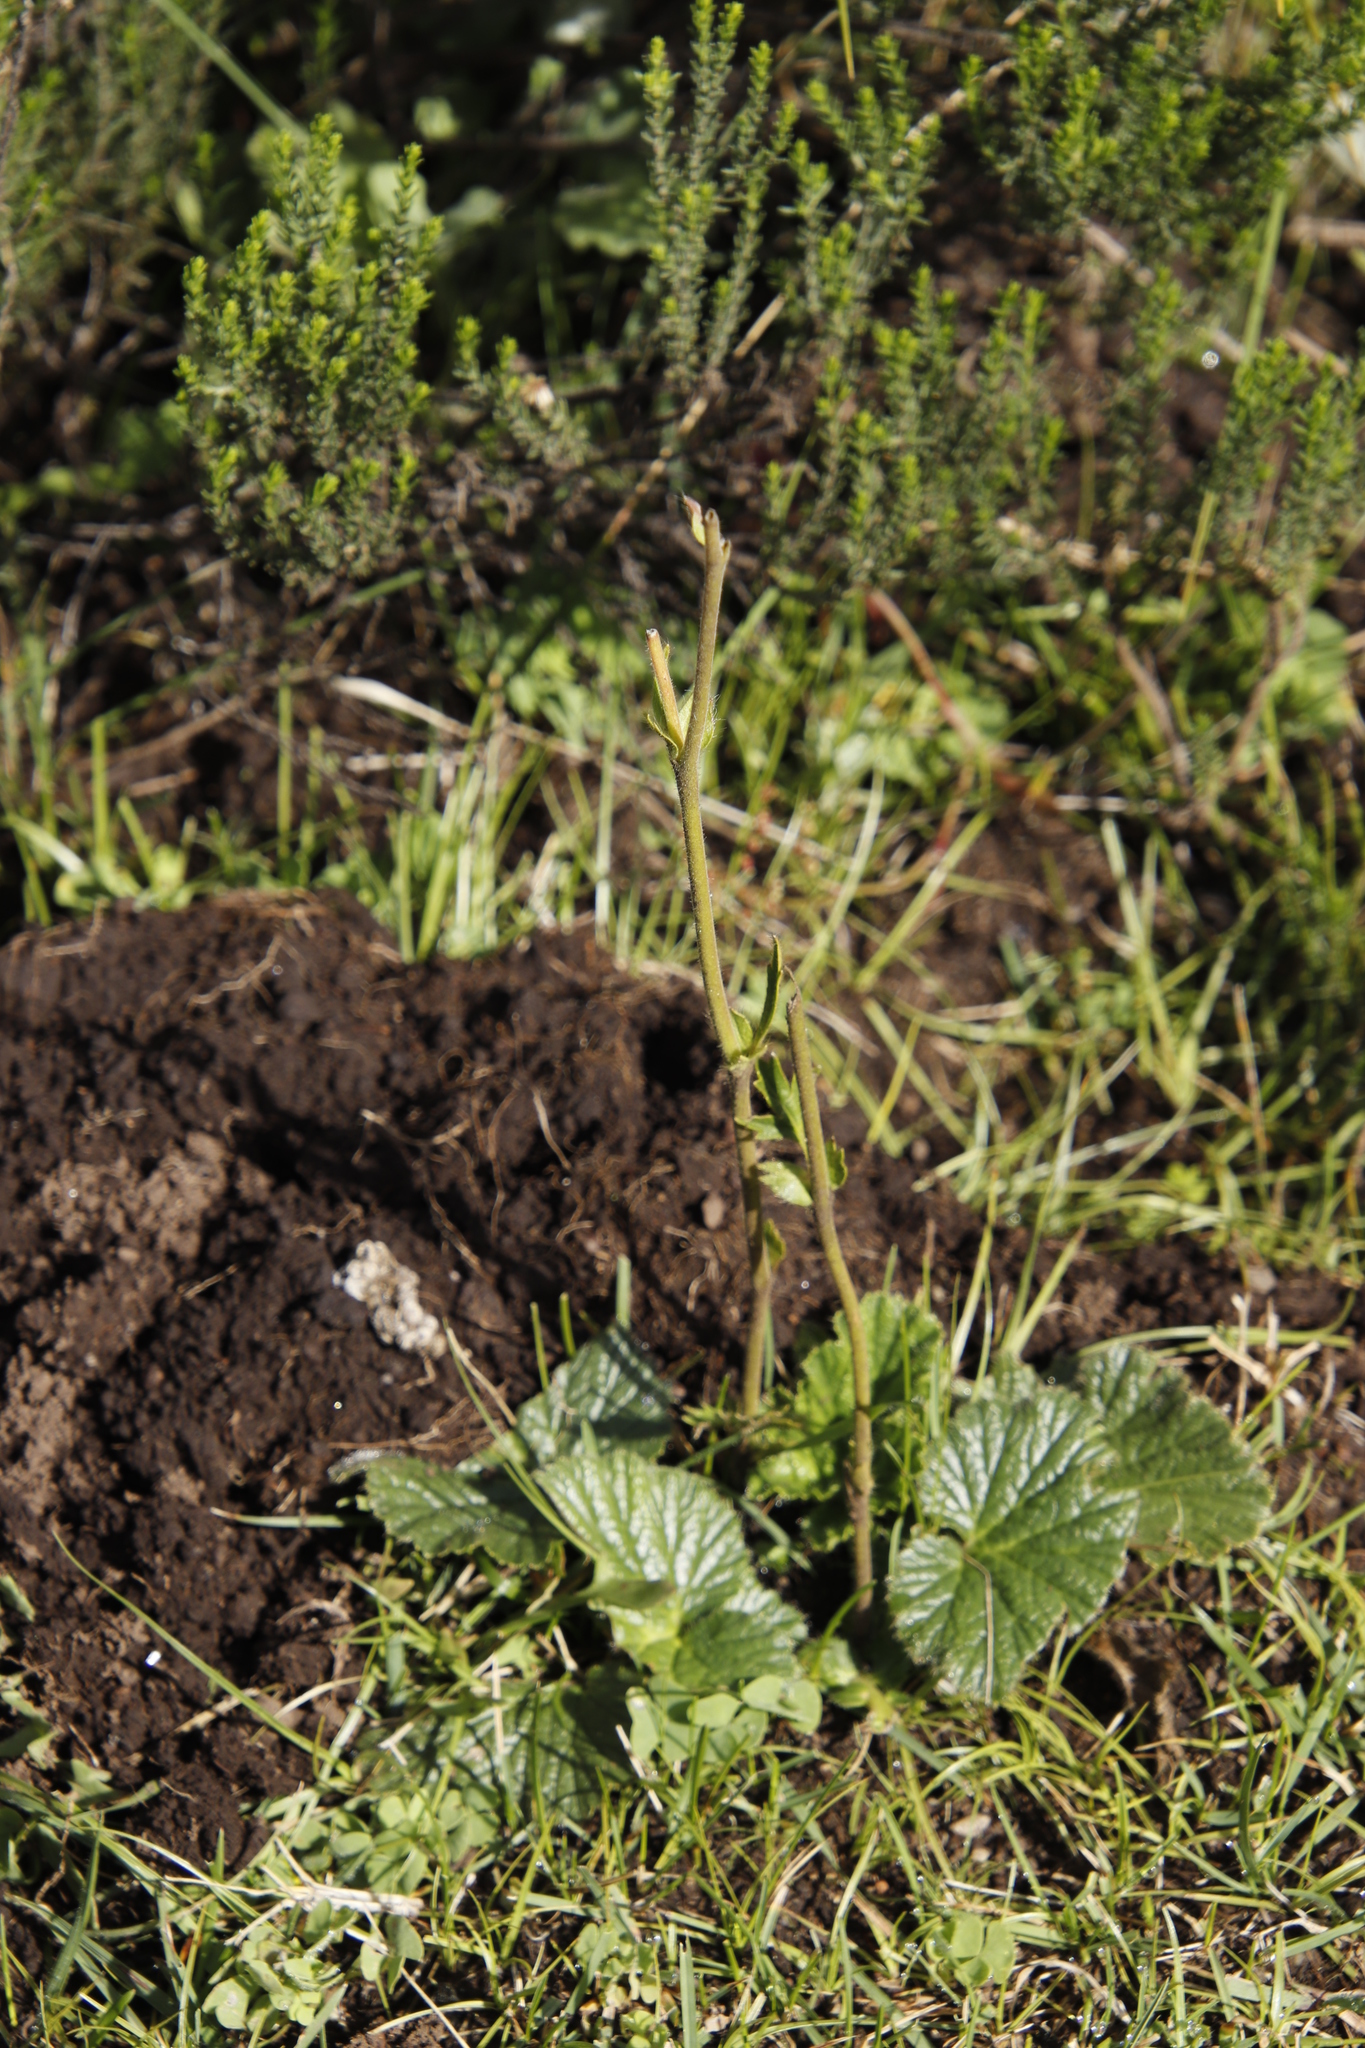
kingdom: Plantae
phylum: Tracheophyta
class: Magnoliopsida
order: Rosales
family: Rosaceae
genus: Geum
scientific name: Geum capense
